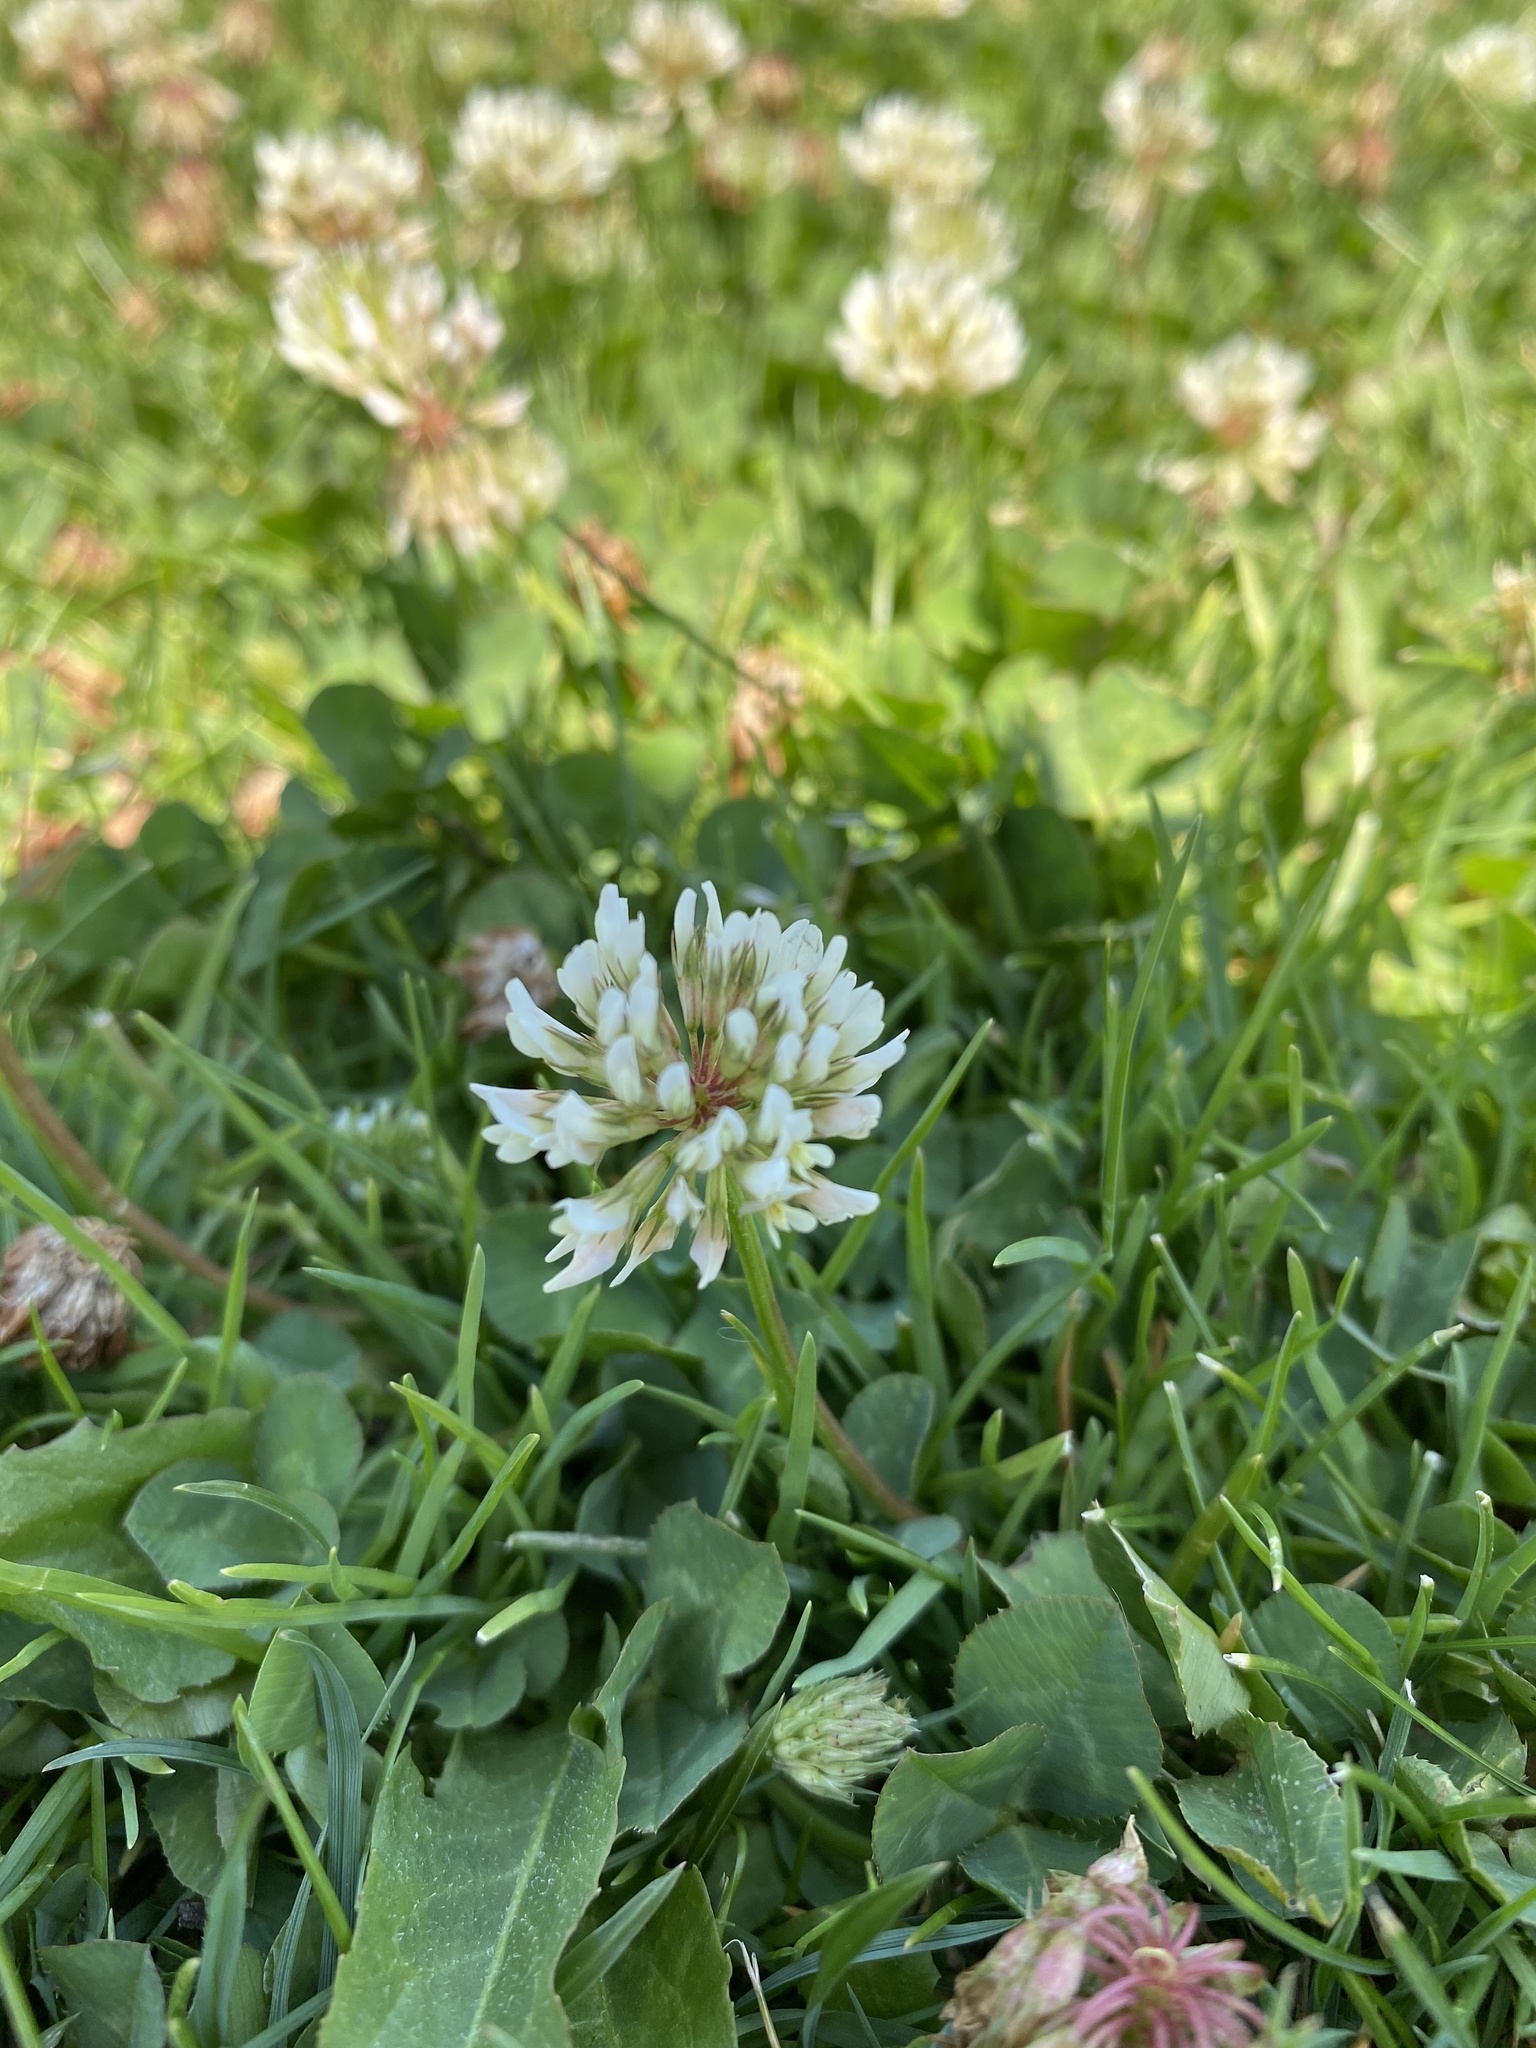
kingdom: Plantae
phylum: Tracheophyta
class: Magnoliopsida
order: Fabales
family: Fabaceae
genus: Trifolium
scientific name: Trifolium repens
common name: White clover
